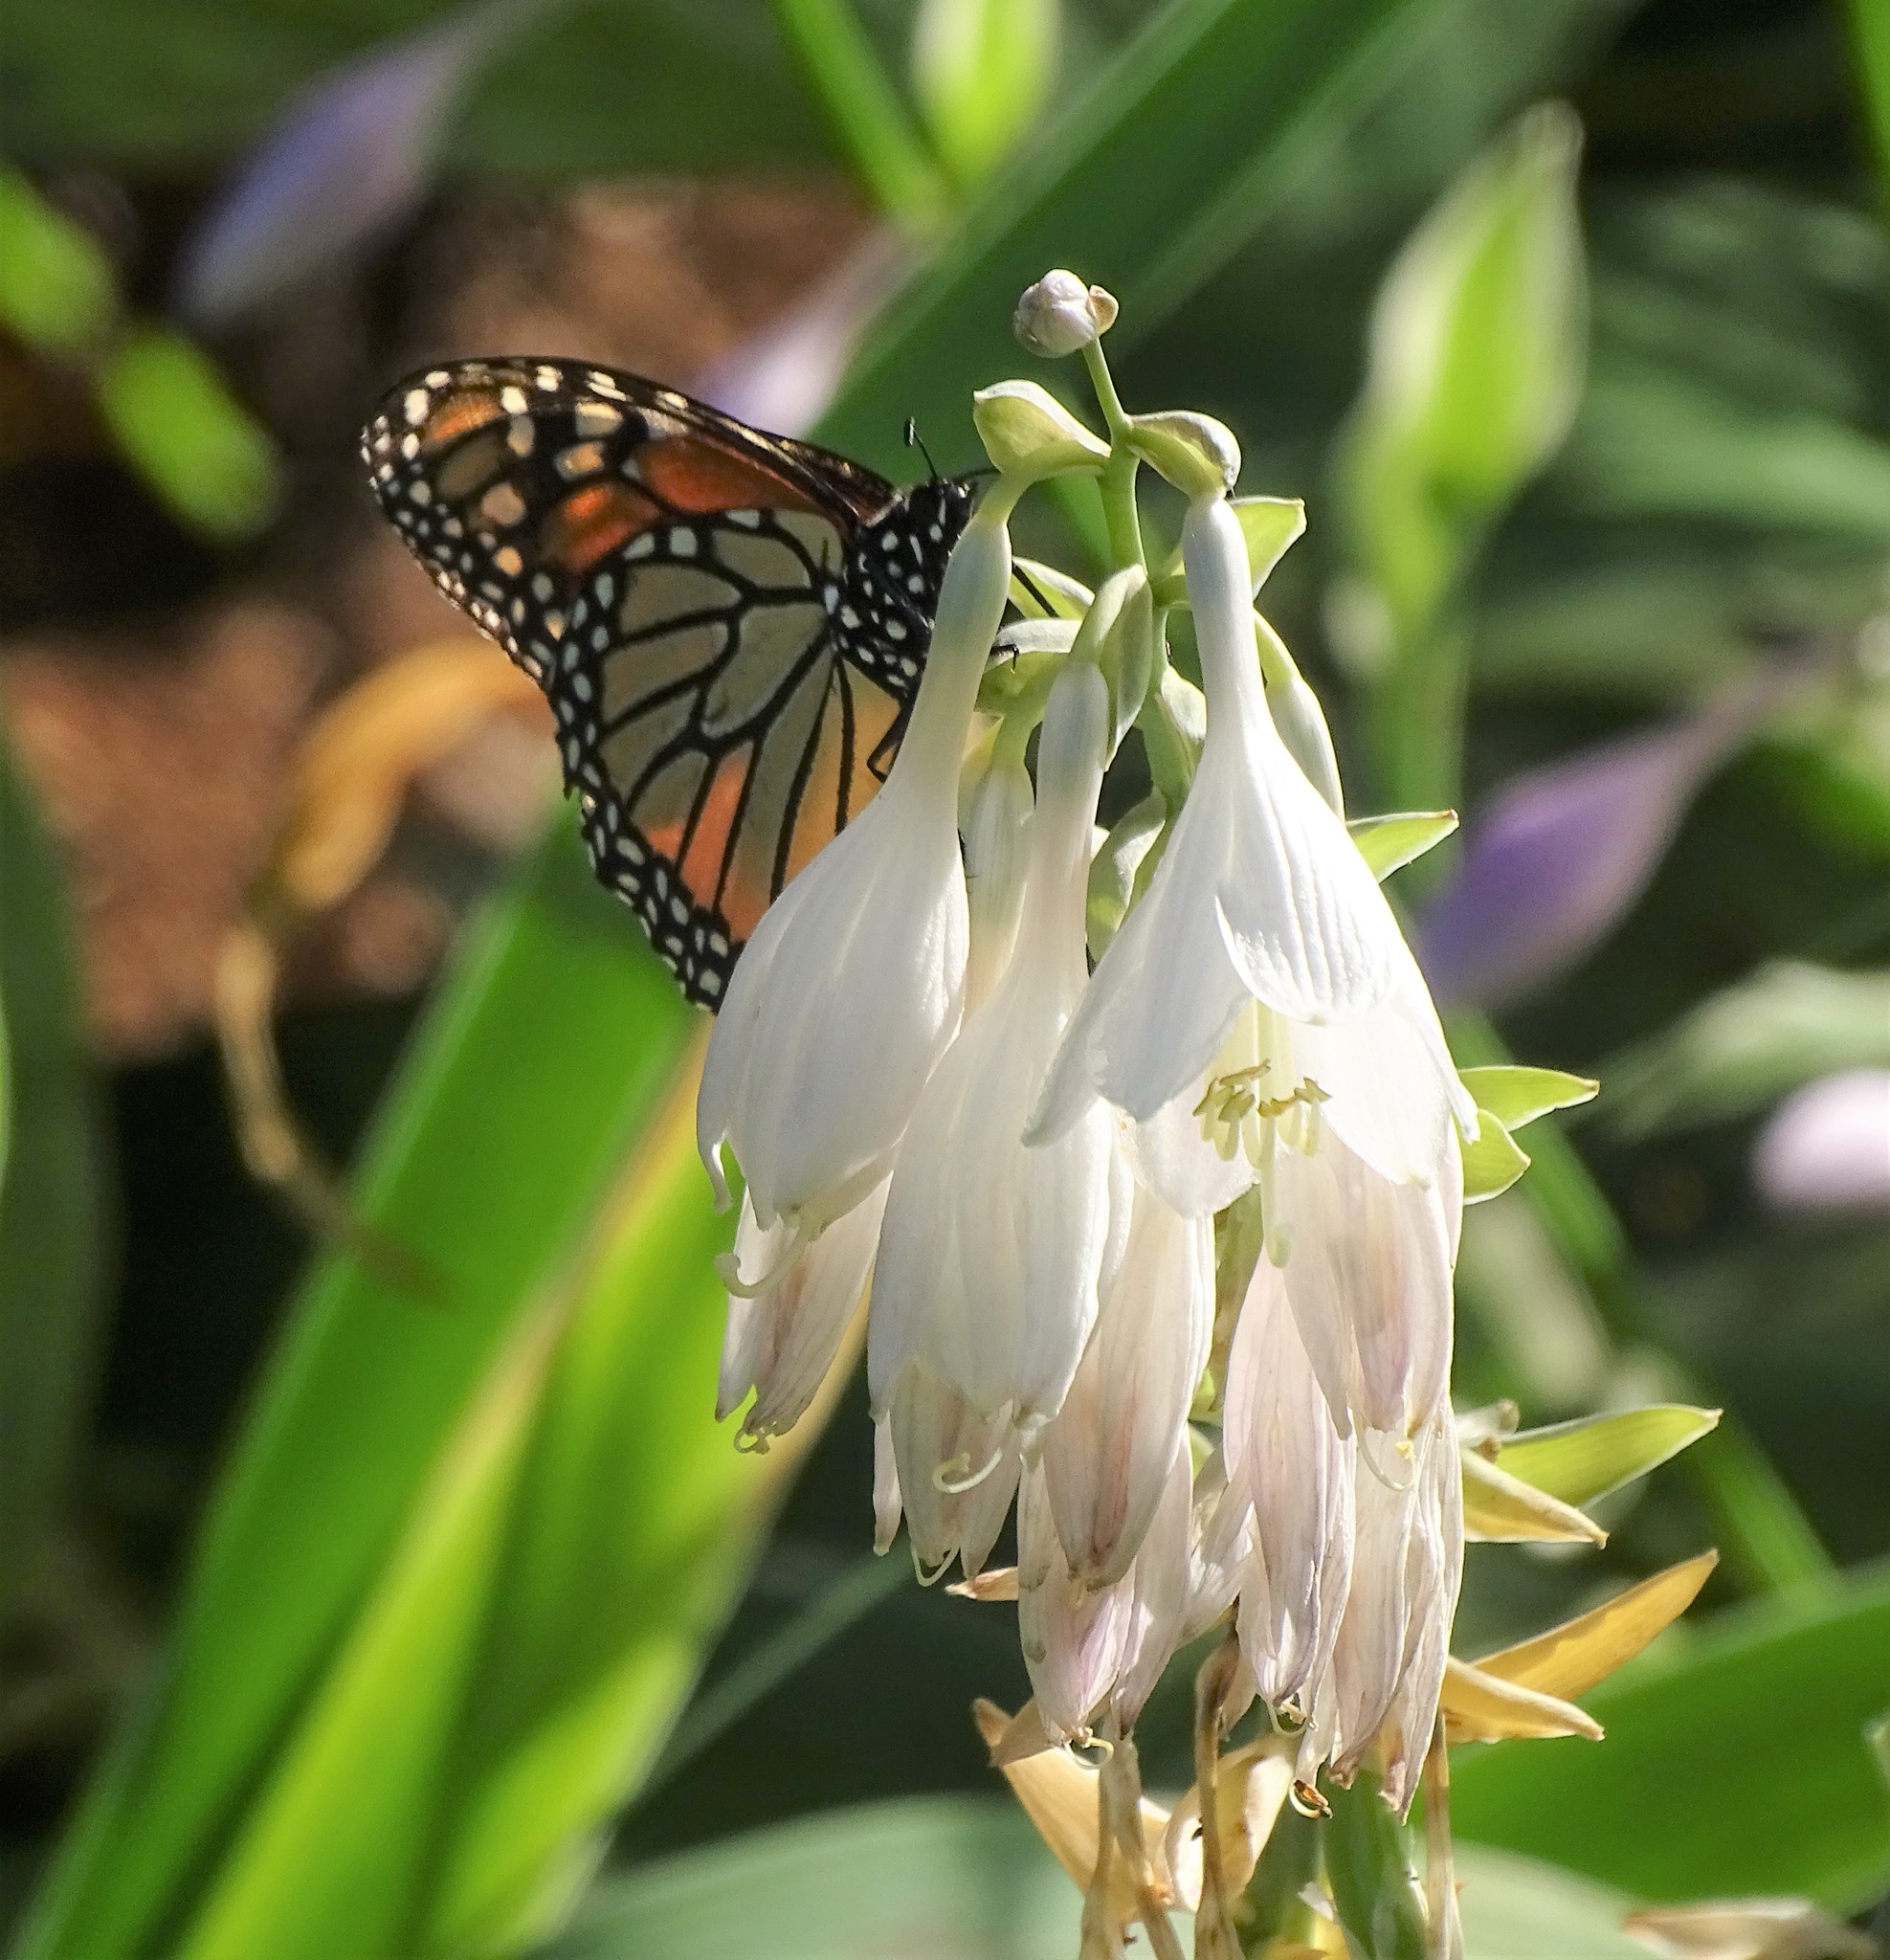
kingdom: Animalia
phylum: Arthropoda
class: Insecta
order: Lepidoptera
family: Nymphalidae
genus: Danaus
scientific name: Danaus plexippus
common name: Monarch
